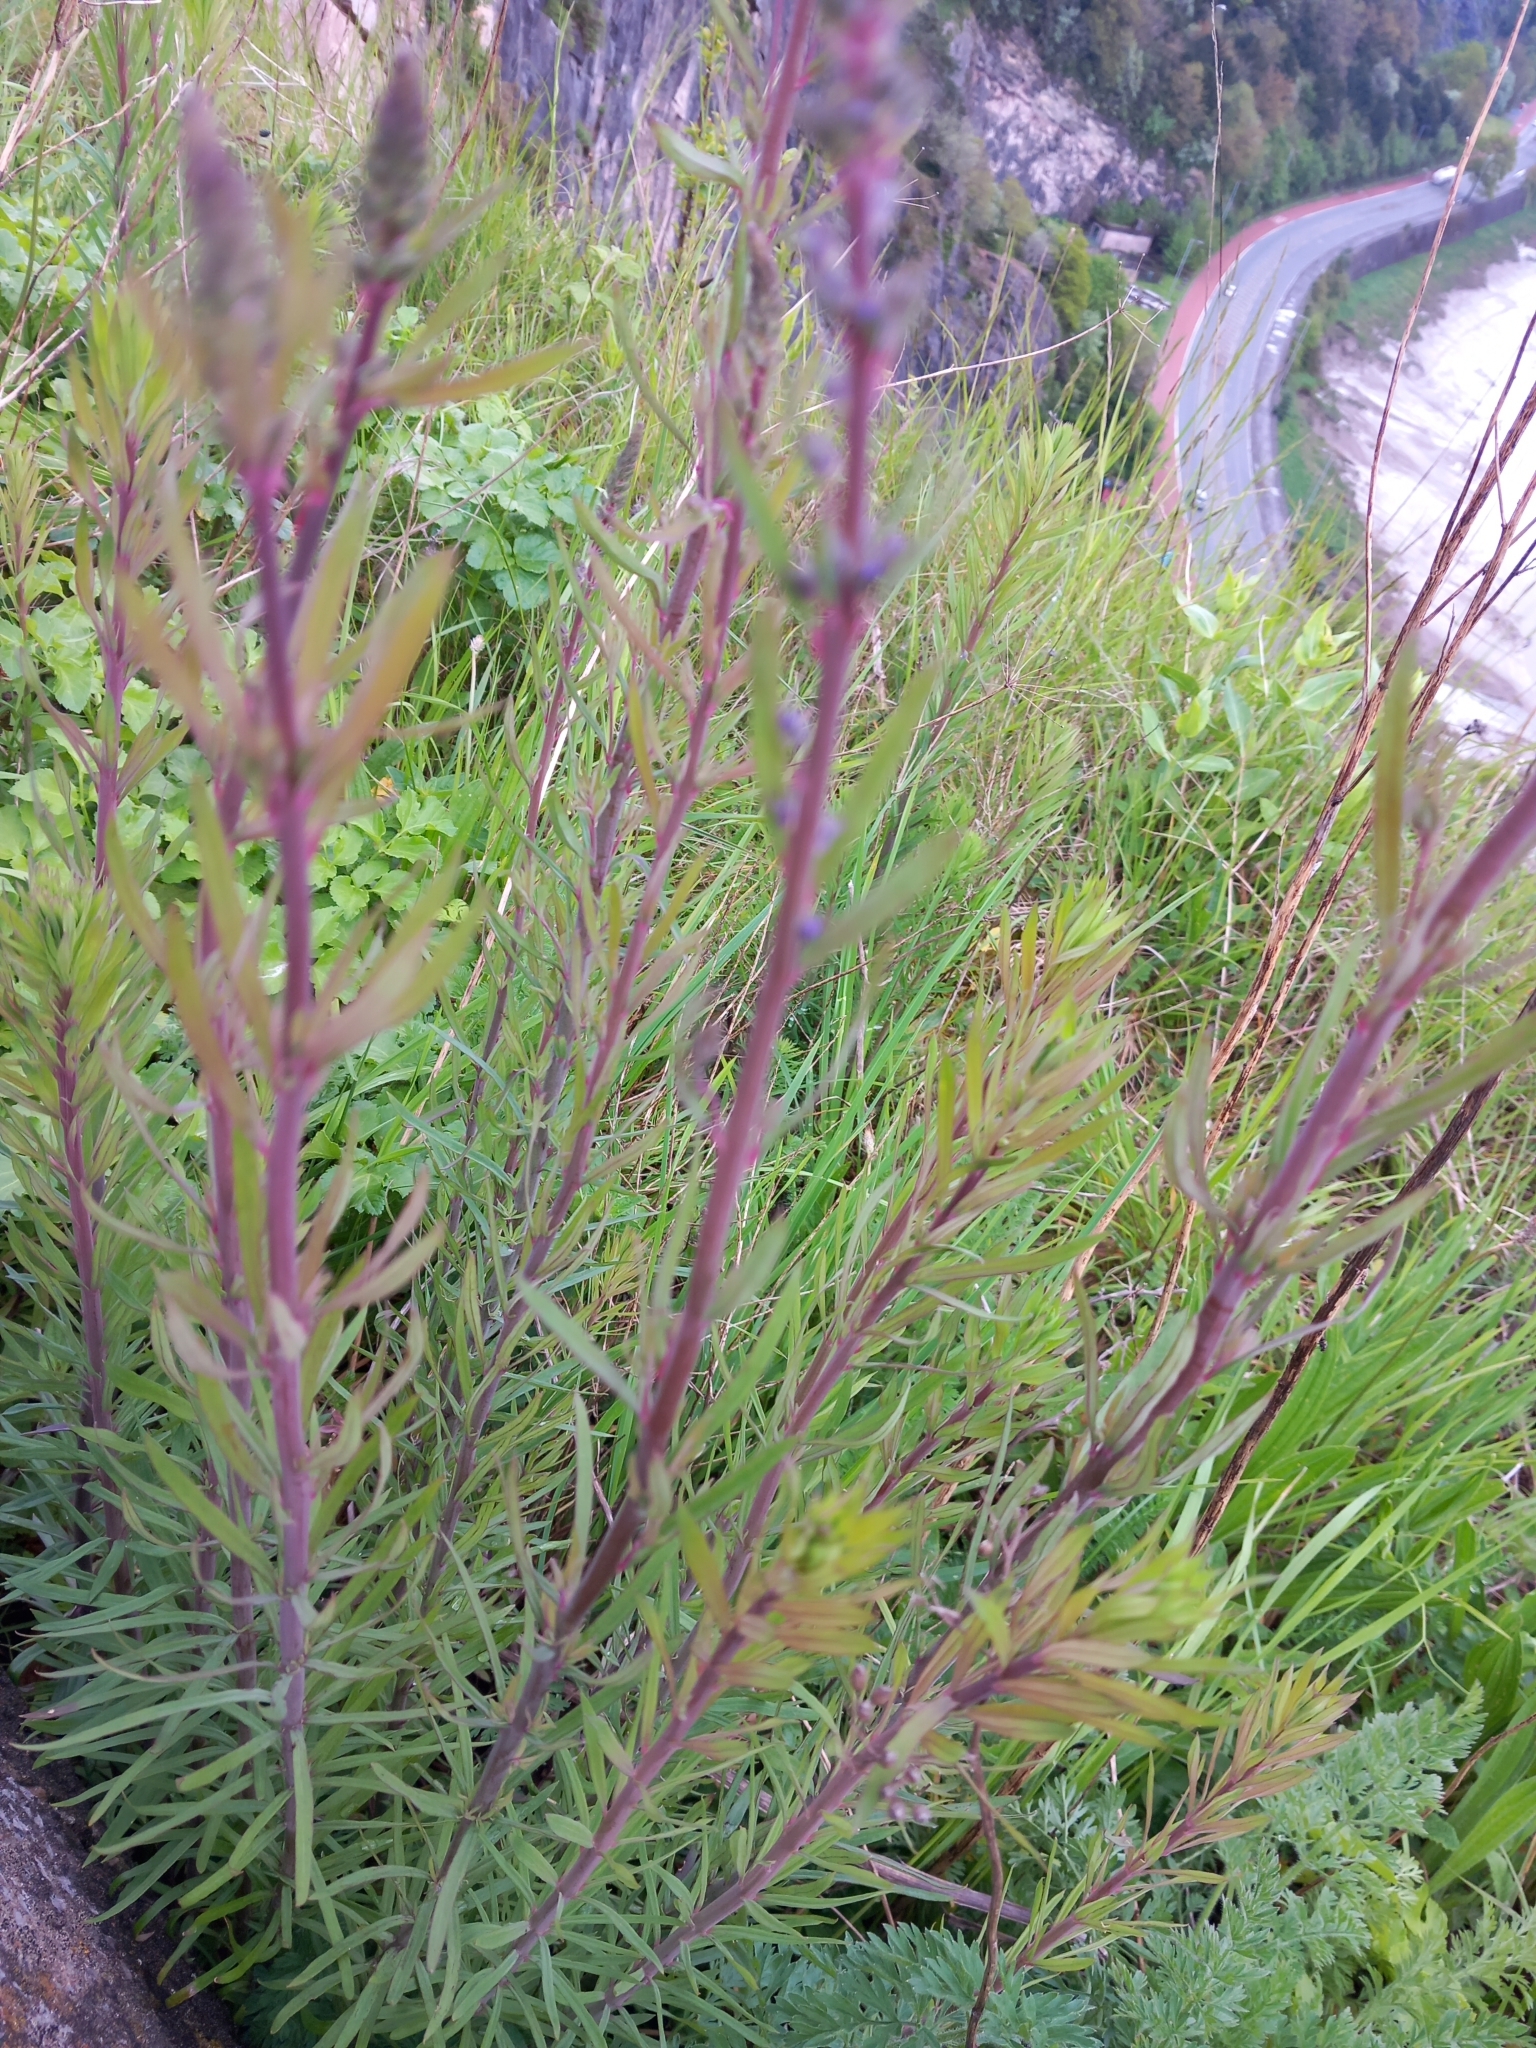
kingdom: Plantae
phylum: Tracheophyta
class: Magnoliopsida
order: Lamiales
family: Plantaginaceae
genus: Linaria
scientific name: Linaria purpurea
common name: Purple toadflax
